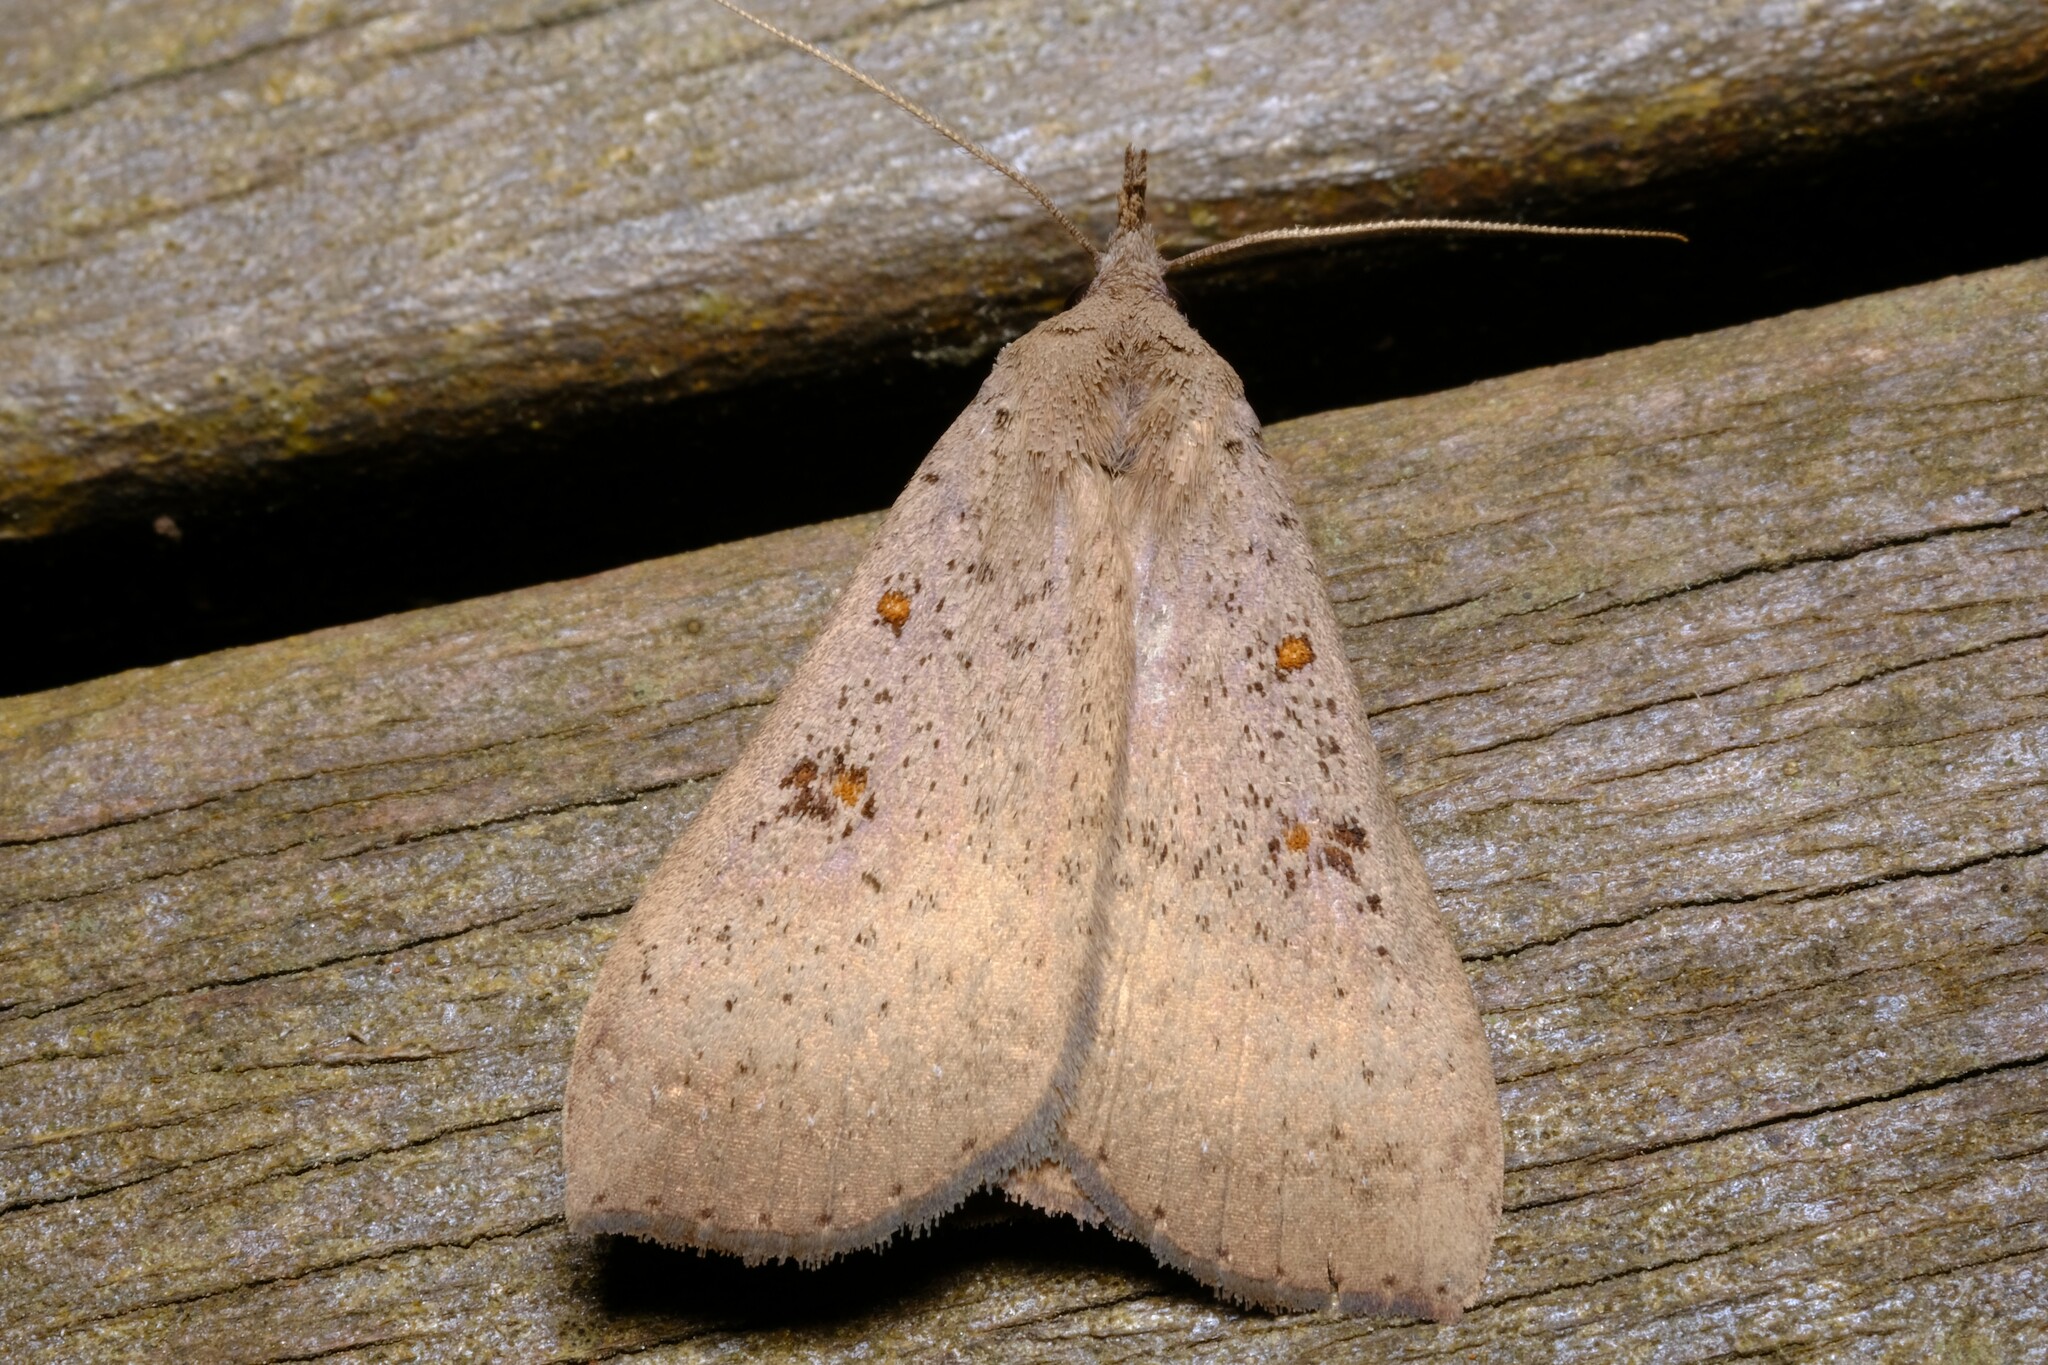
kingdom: Animalia
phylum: Arthropoda
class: Insecta
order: Lepidoptera
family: Erebidae
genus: Rhapsa
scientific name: Rhapsa suscitatalis
